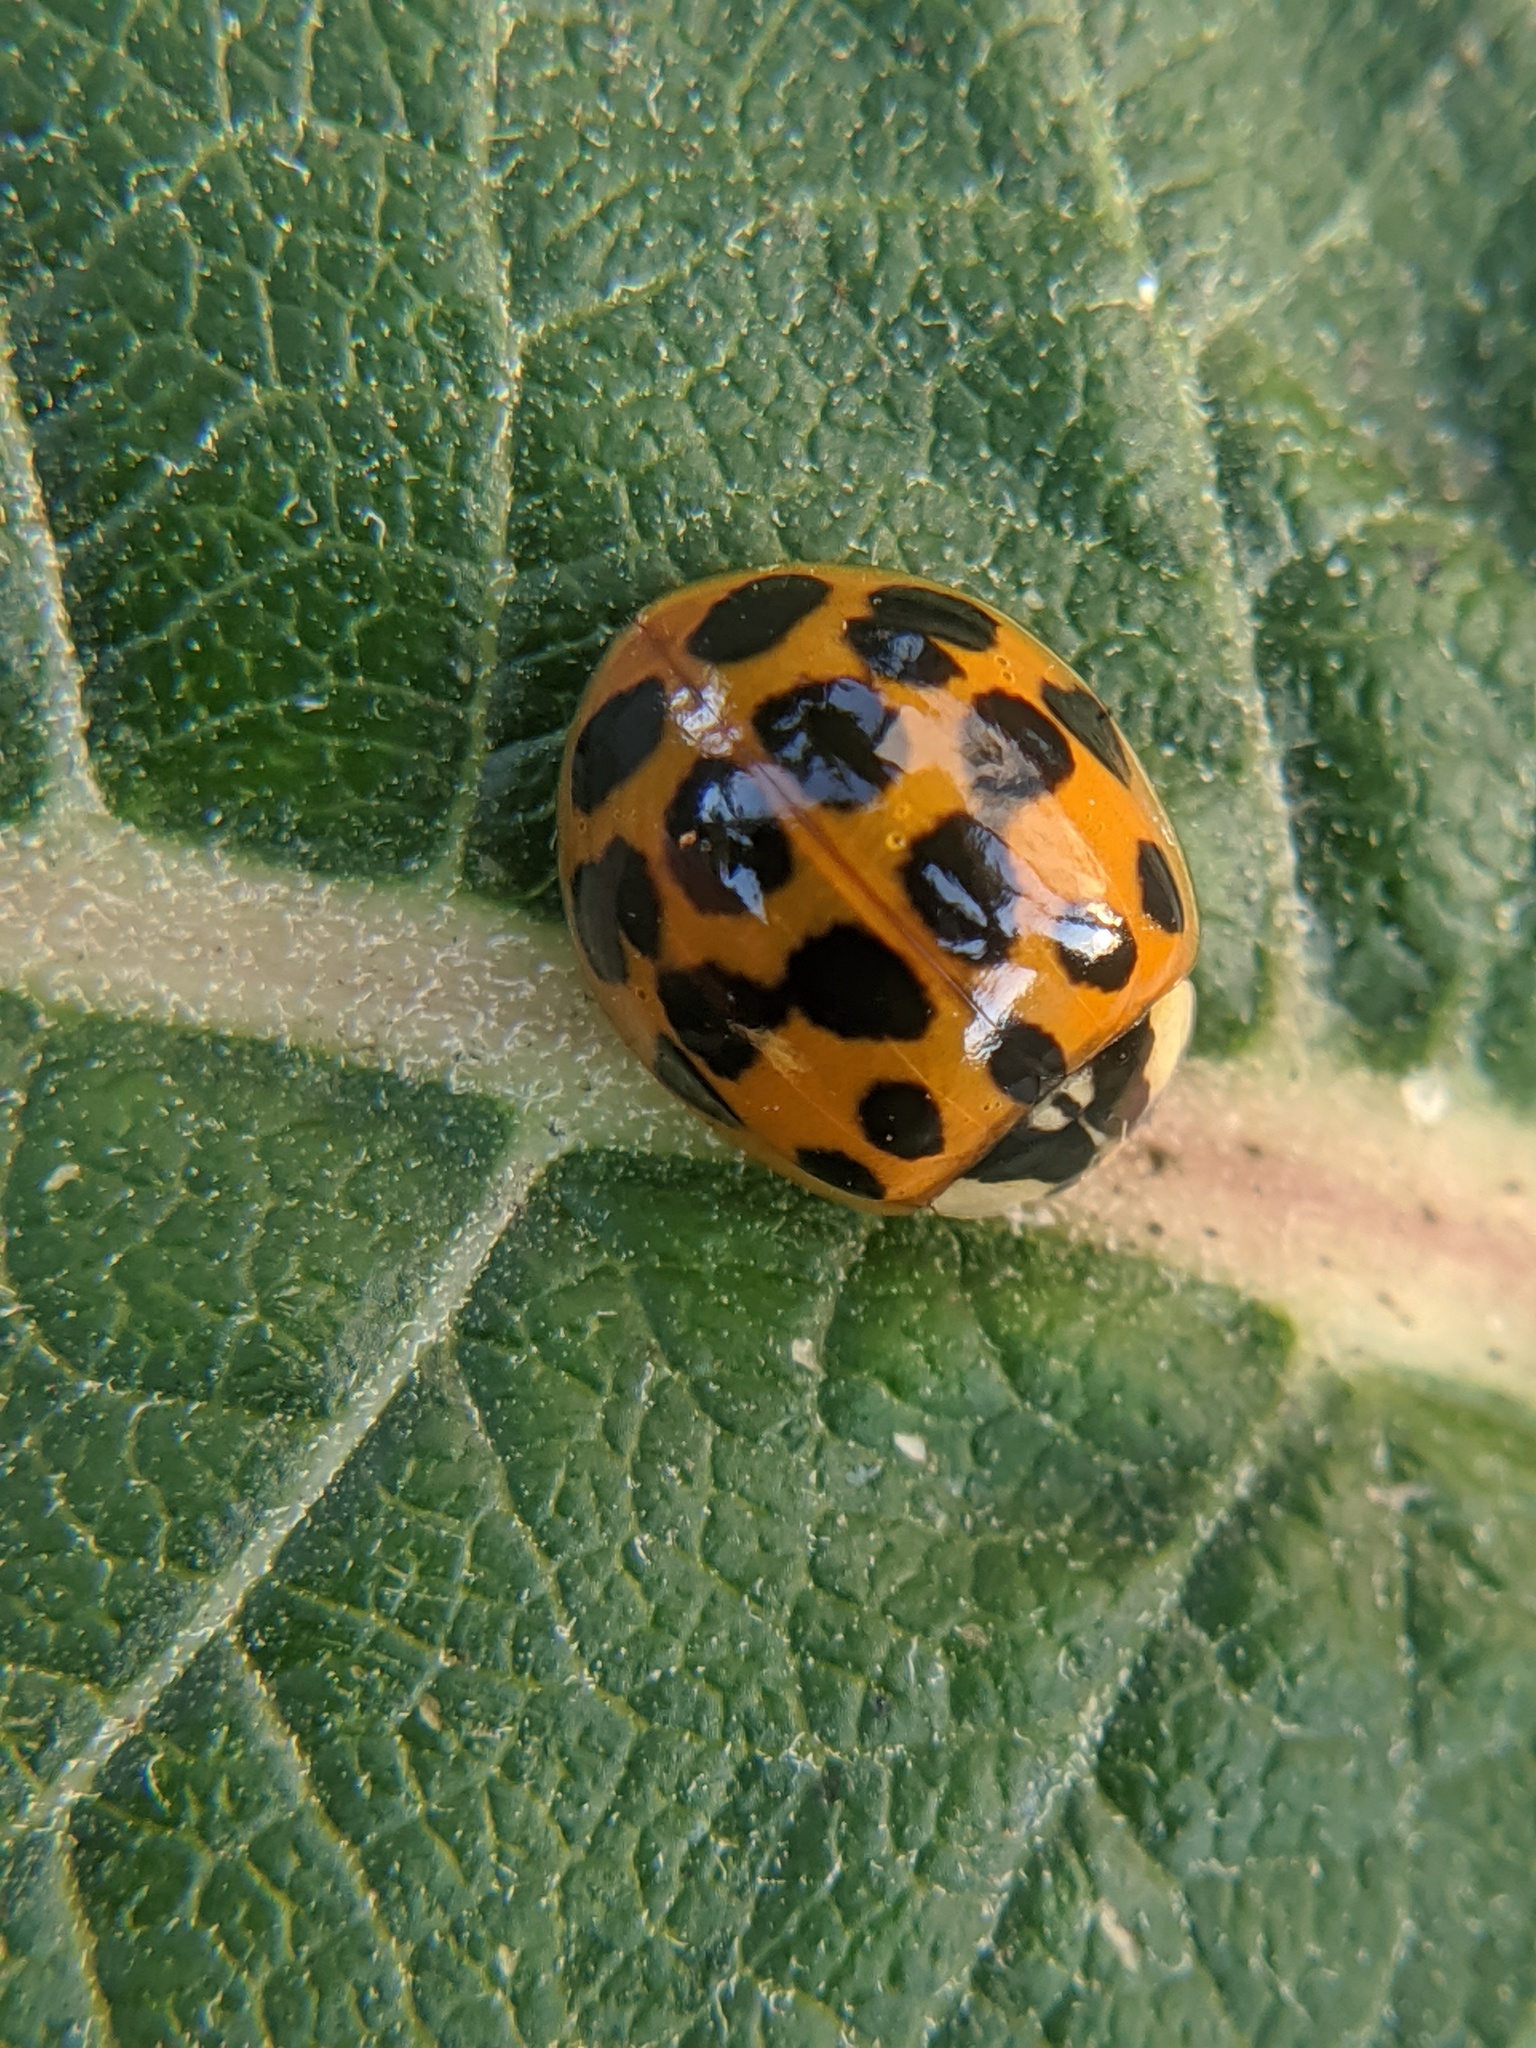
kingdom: Animalia
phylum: Arthropoda
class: Insecta
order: Coleoptera
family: Coccinellidae
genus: Harmonia
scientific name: Harmonia axyridis
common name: Harlequin ladybird
